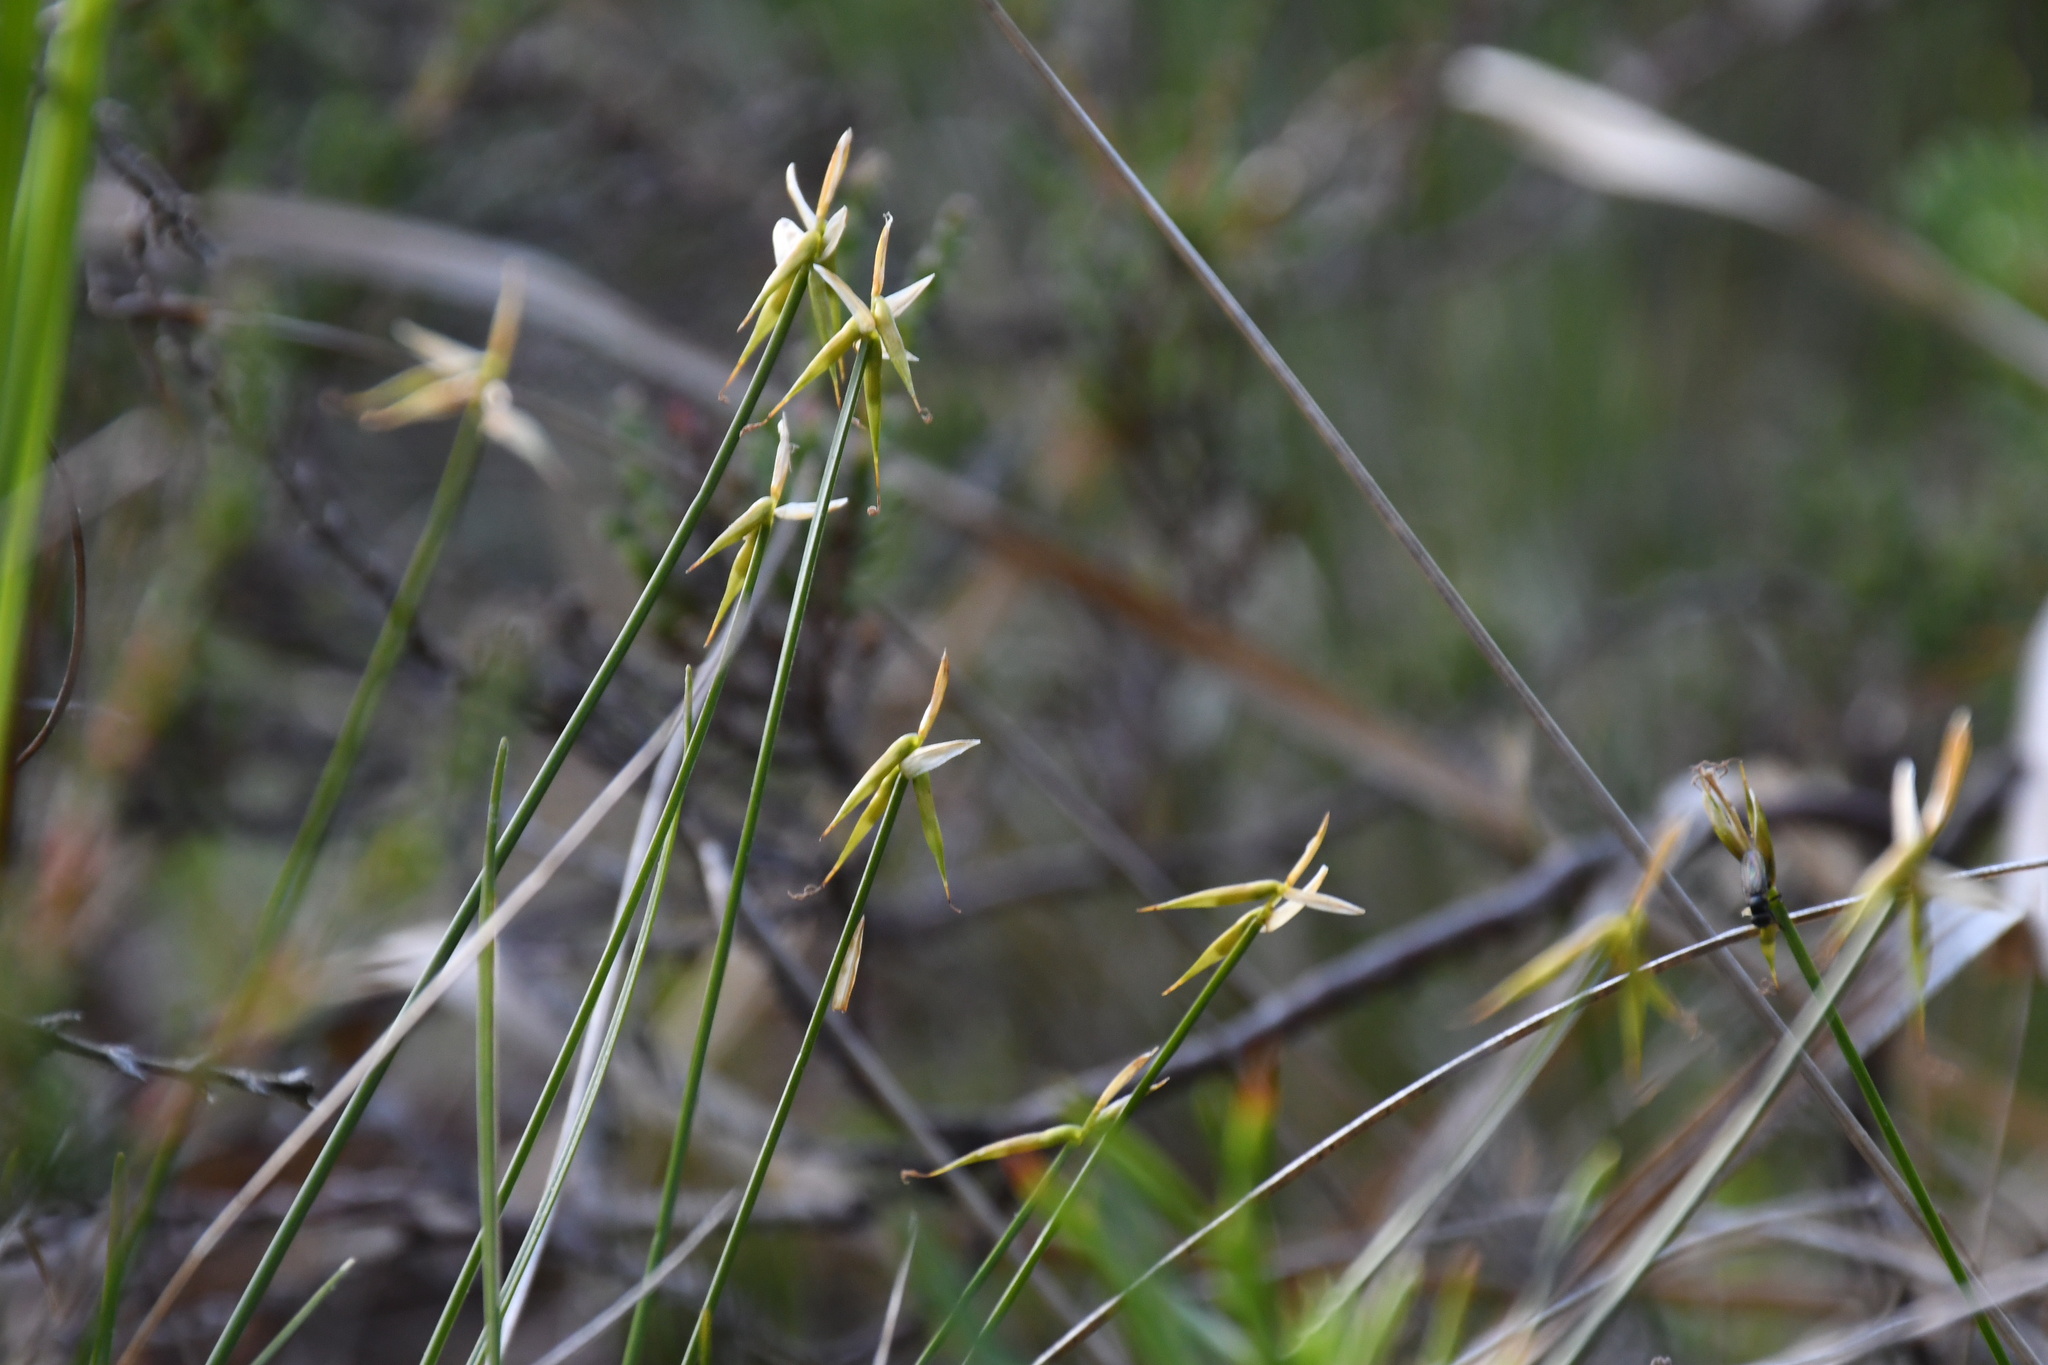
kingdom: Plantae
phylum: Tracheophyta
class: Liliopsida
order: Poales
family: Cyperaceae
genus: Carex
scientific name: Carex pauciflora
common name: Few-flowered sedge
